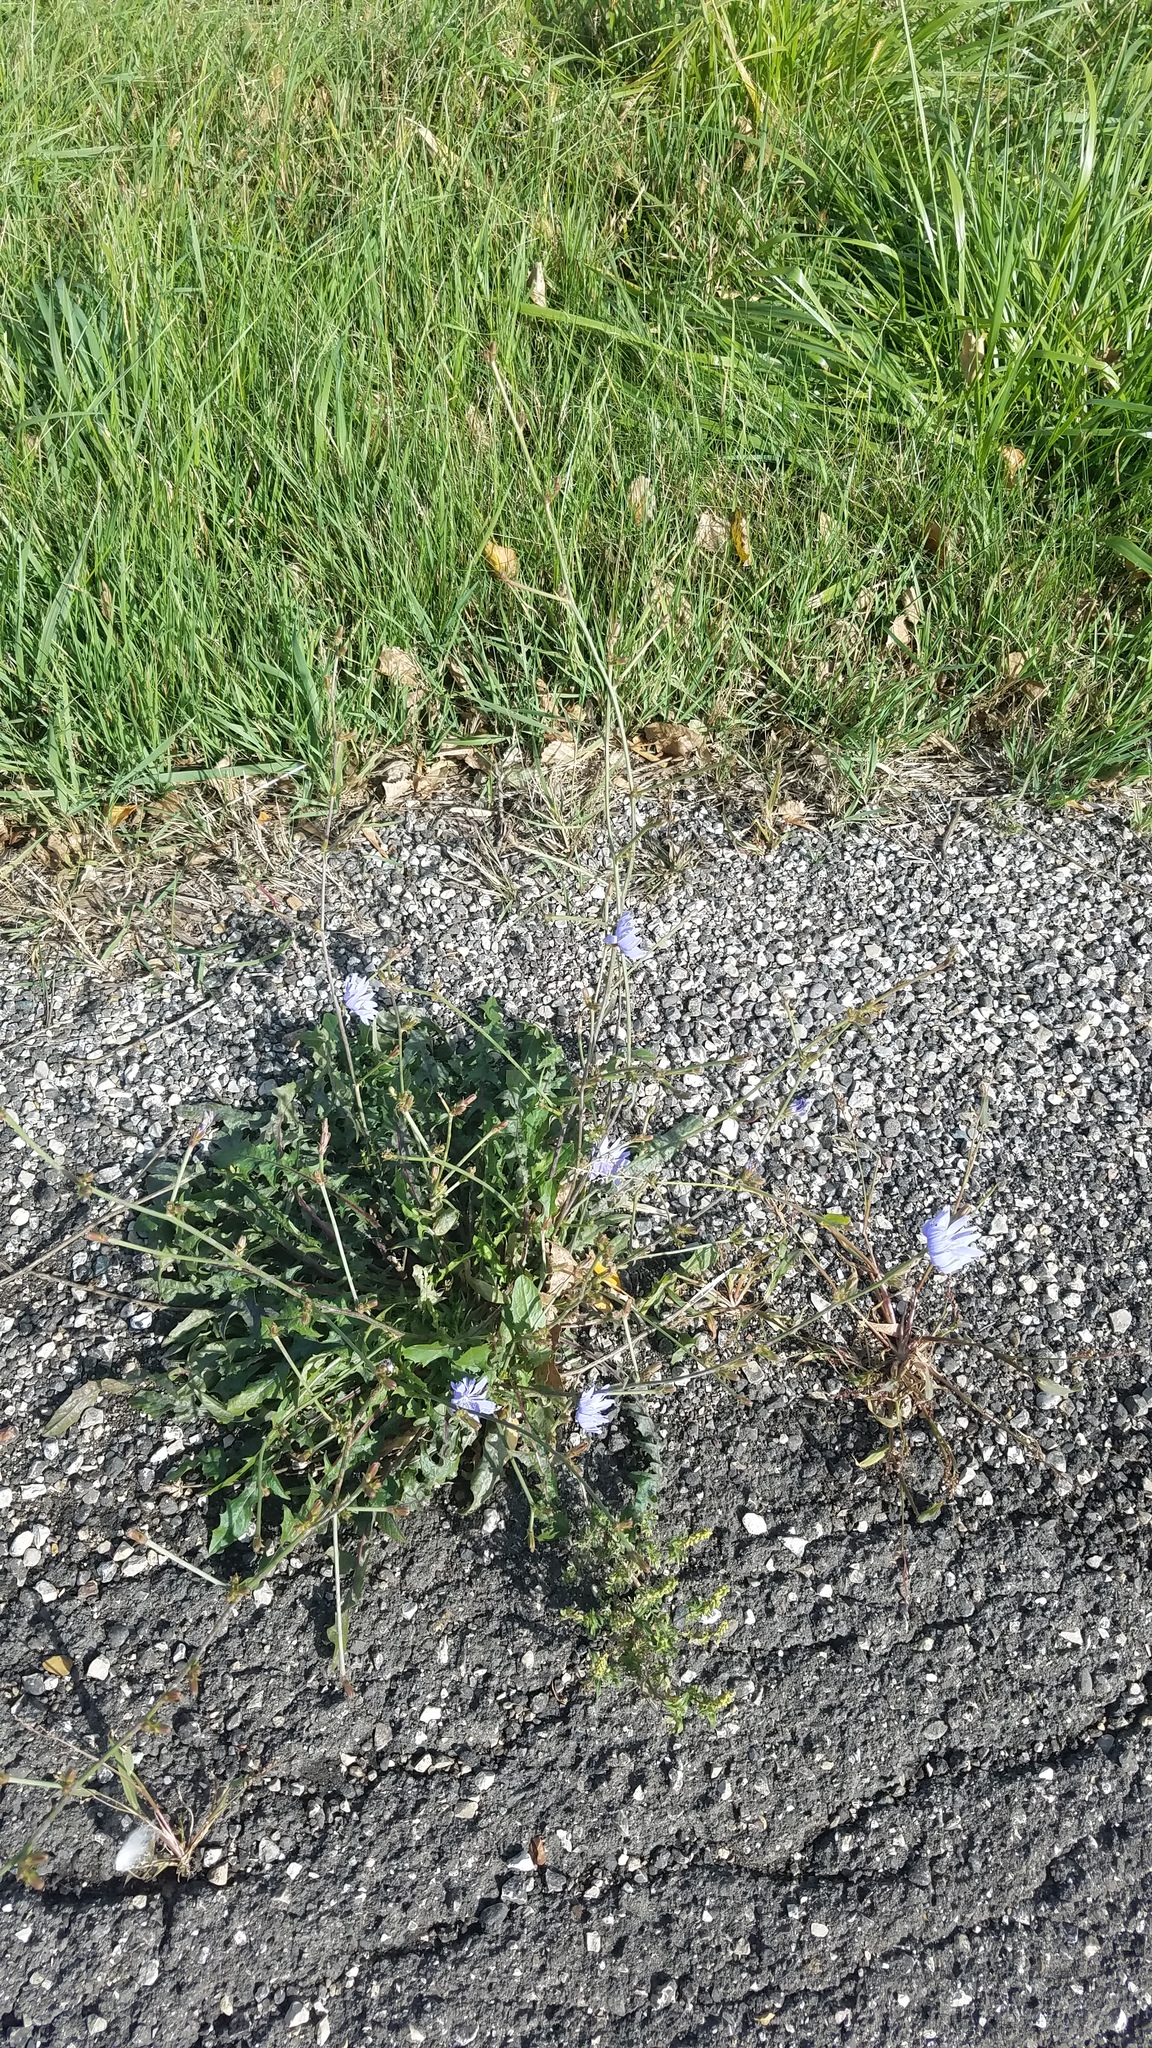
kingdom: Plantae
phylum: Tracheophyta
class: Magnoliopsida
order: Asterales
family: Asteraceae
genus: Cichorium
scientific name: Cichorium intybus
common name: Chicory
